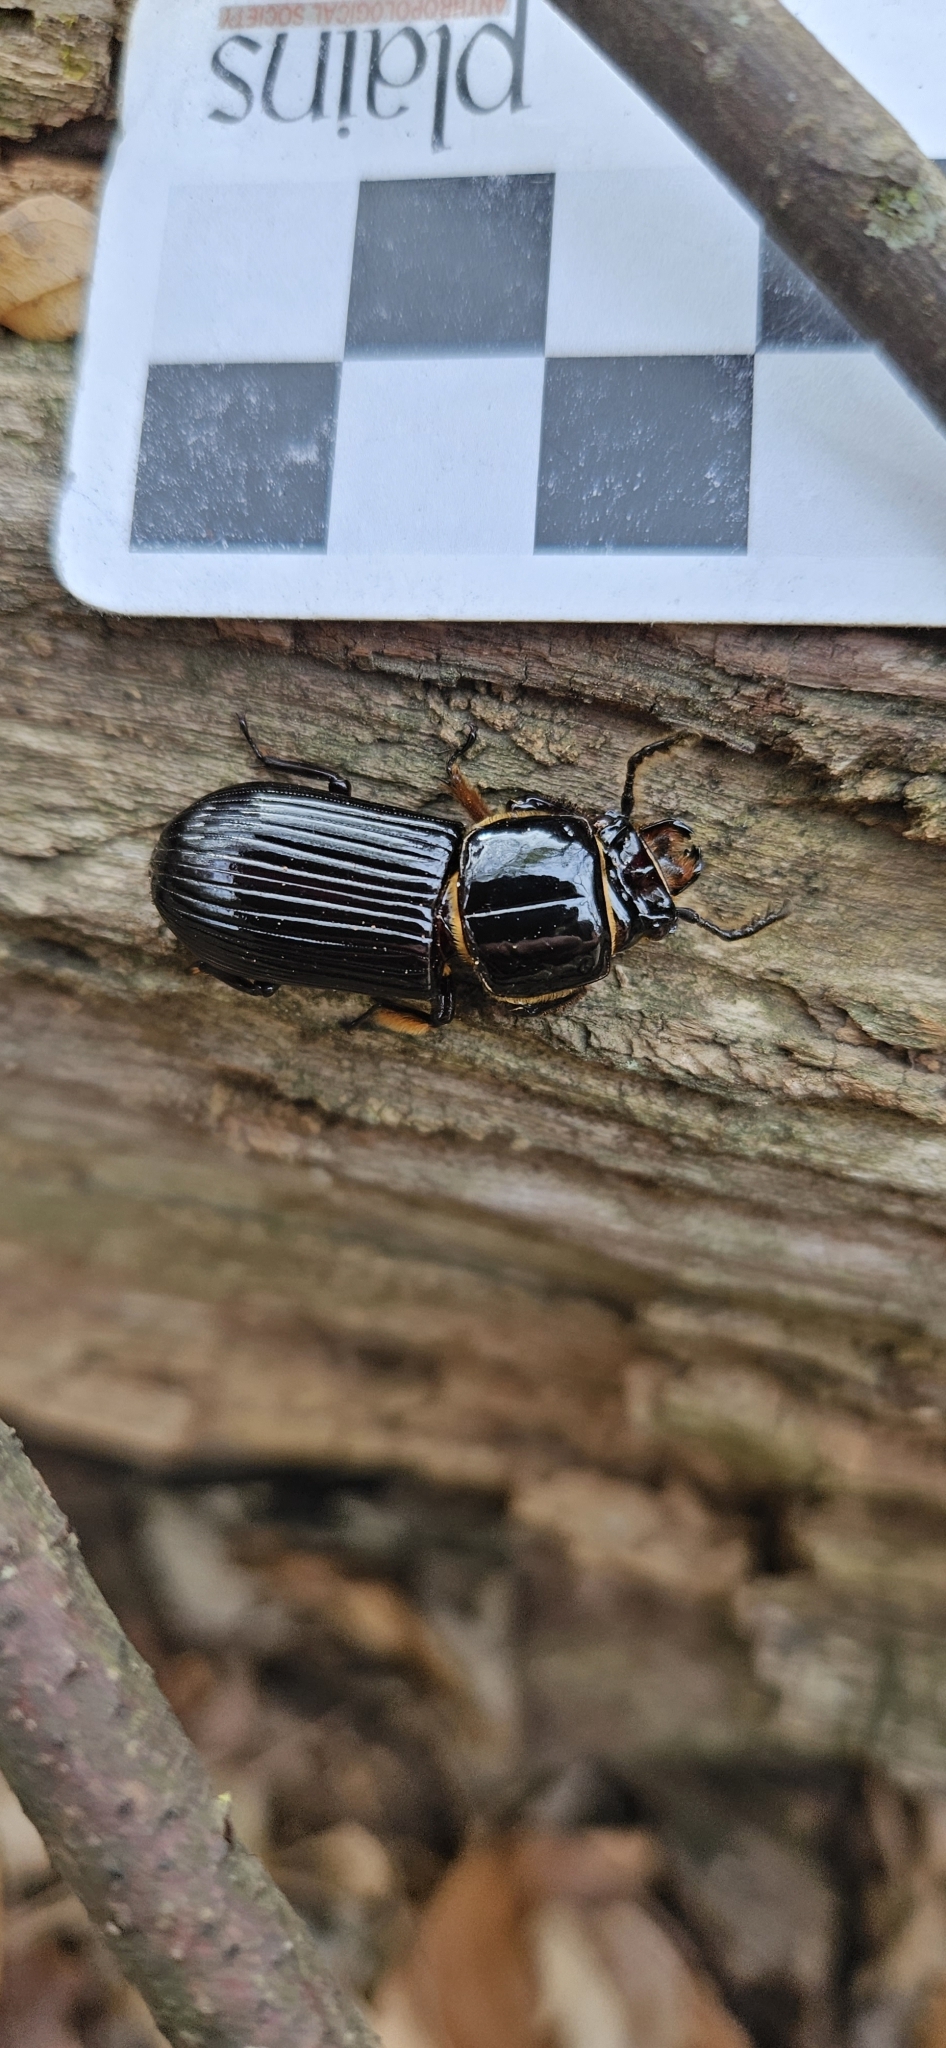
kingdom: Animalia
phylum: Arthropoda
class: Insecta
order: Coleoptera
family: Passalidae
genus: Odontotaenius
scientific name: Odontotaenius disjunctus
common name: Patent leather beetle
